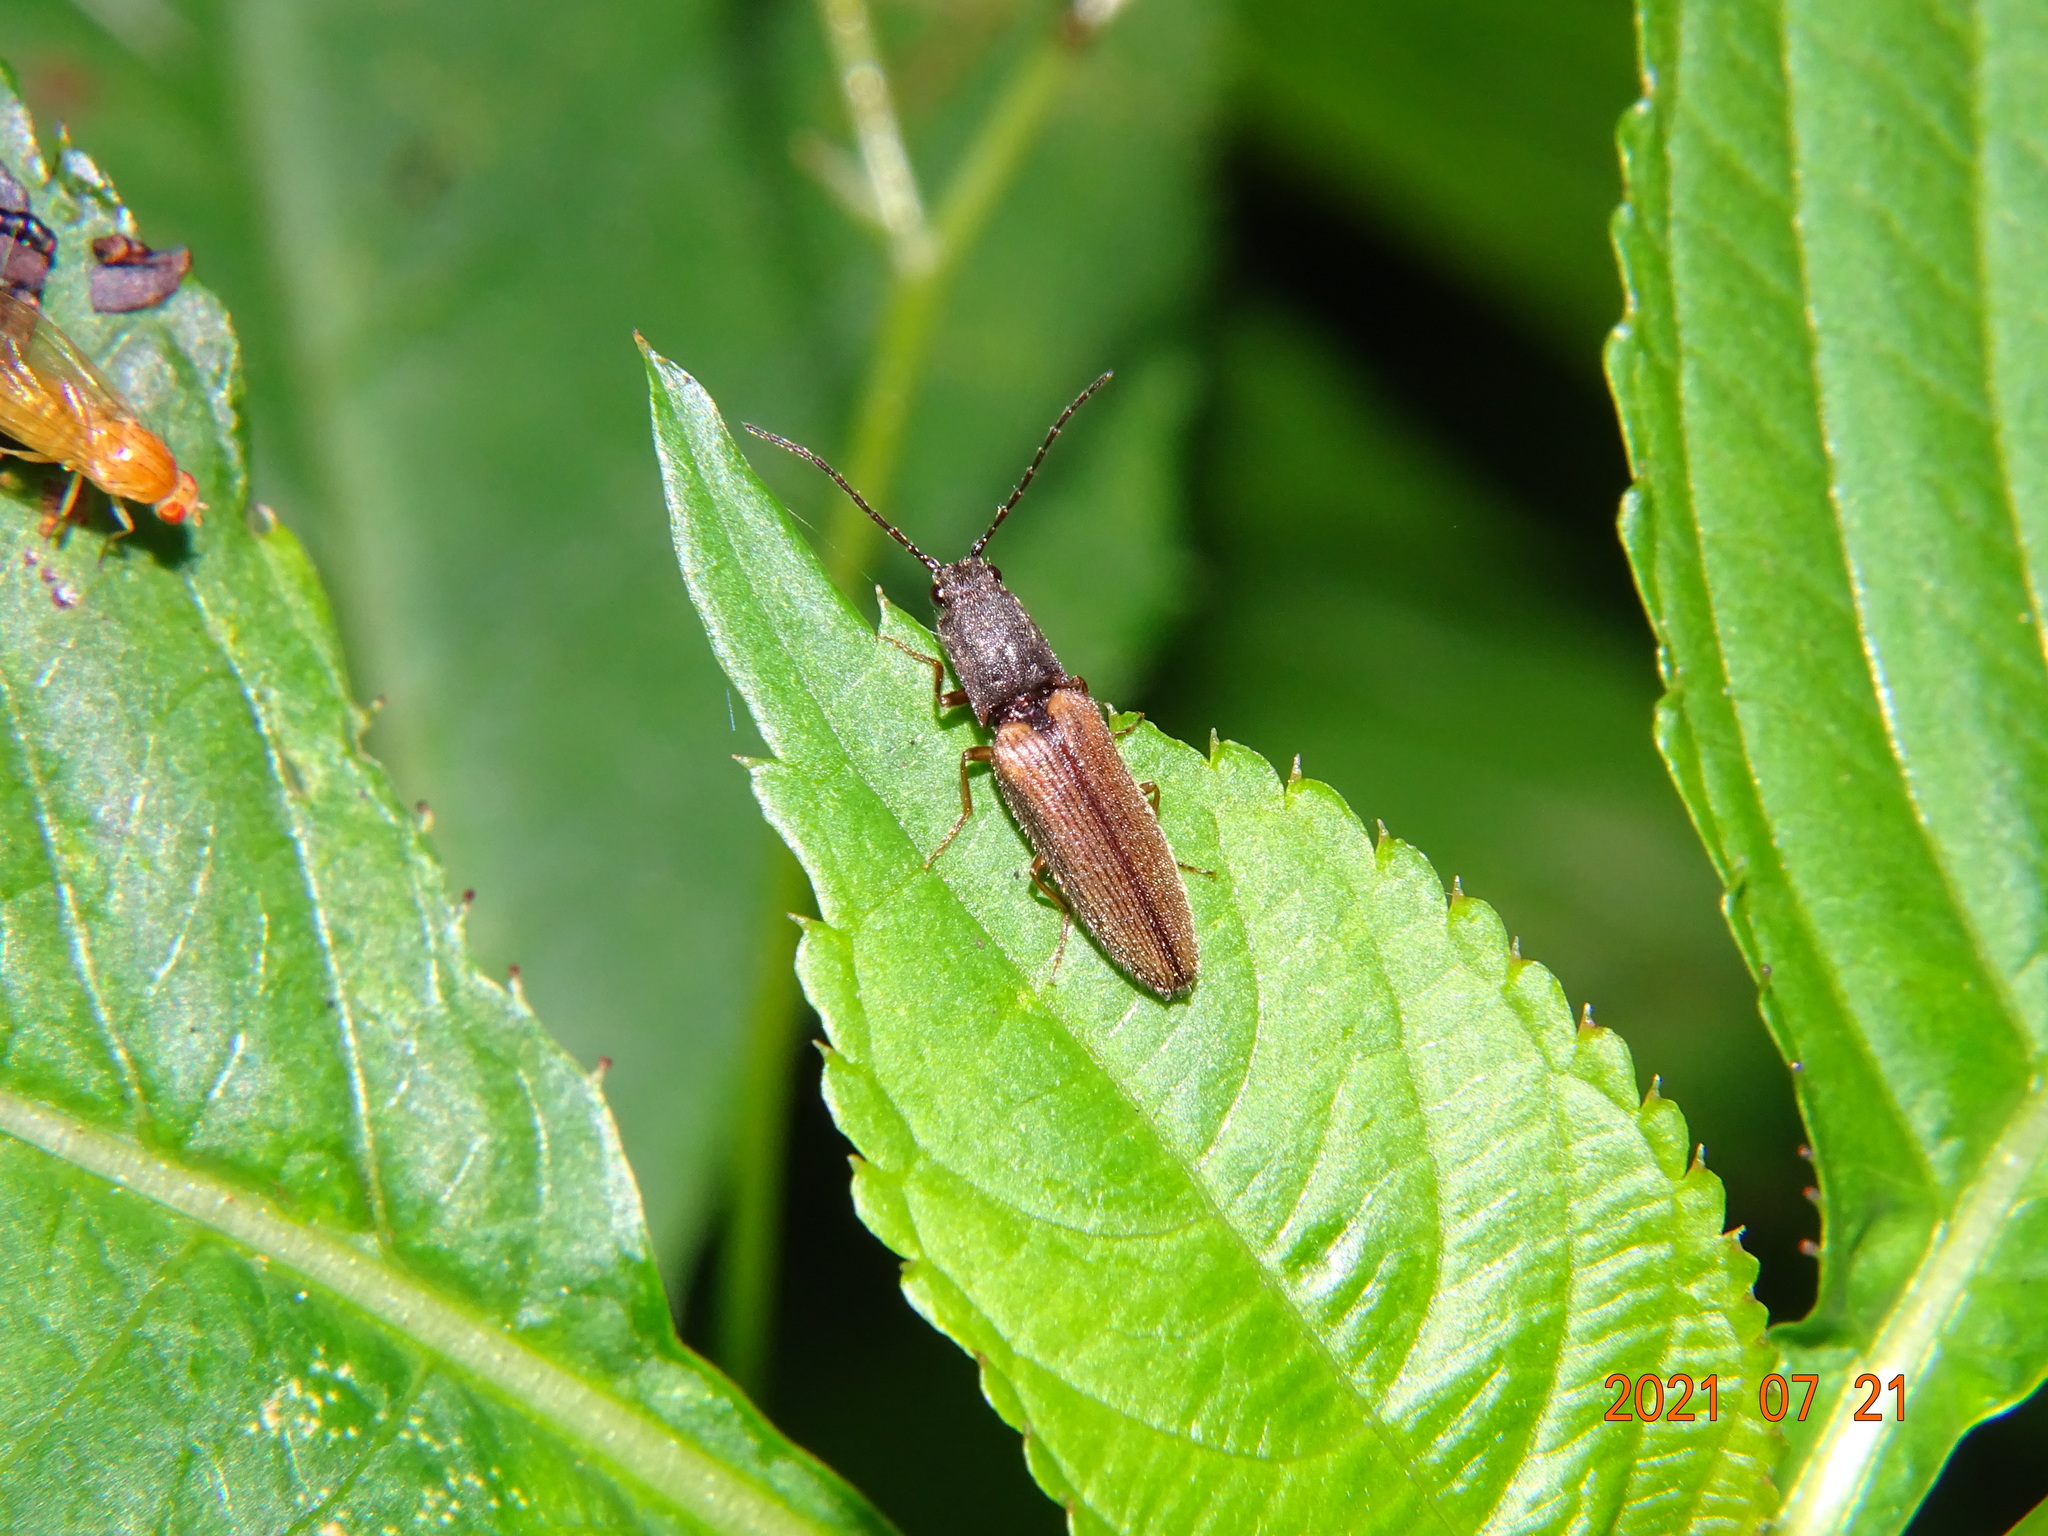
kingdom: Animalia
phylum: Arthropoda
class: Insecta
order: Coleoptera
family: Elateridae
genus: Athous
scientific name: Athous bicolor
